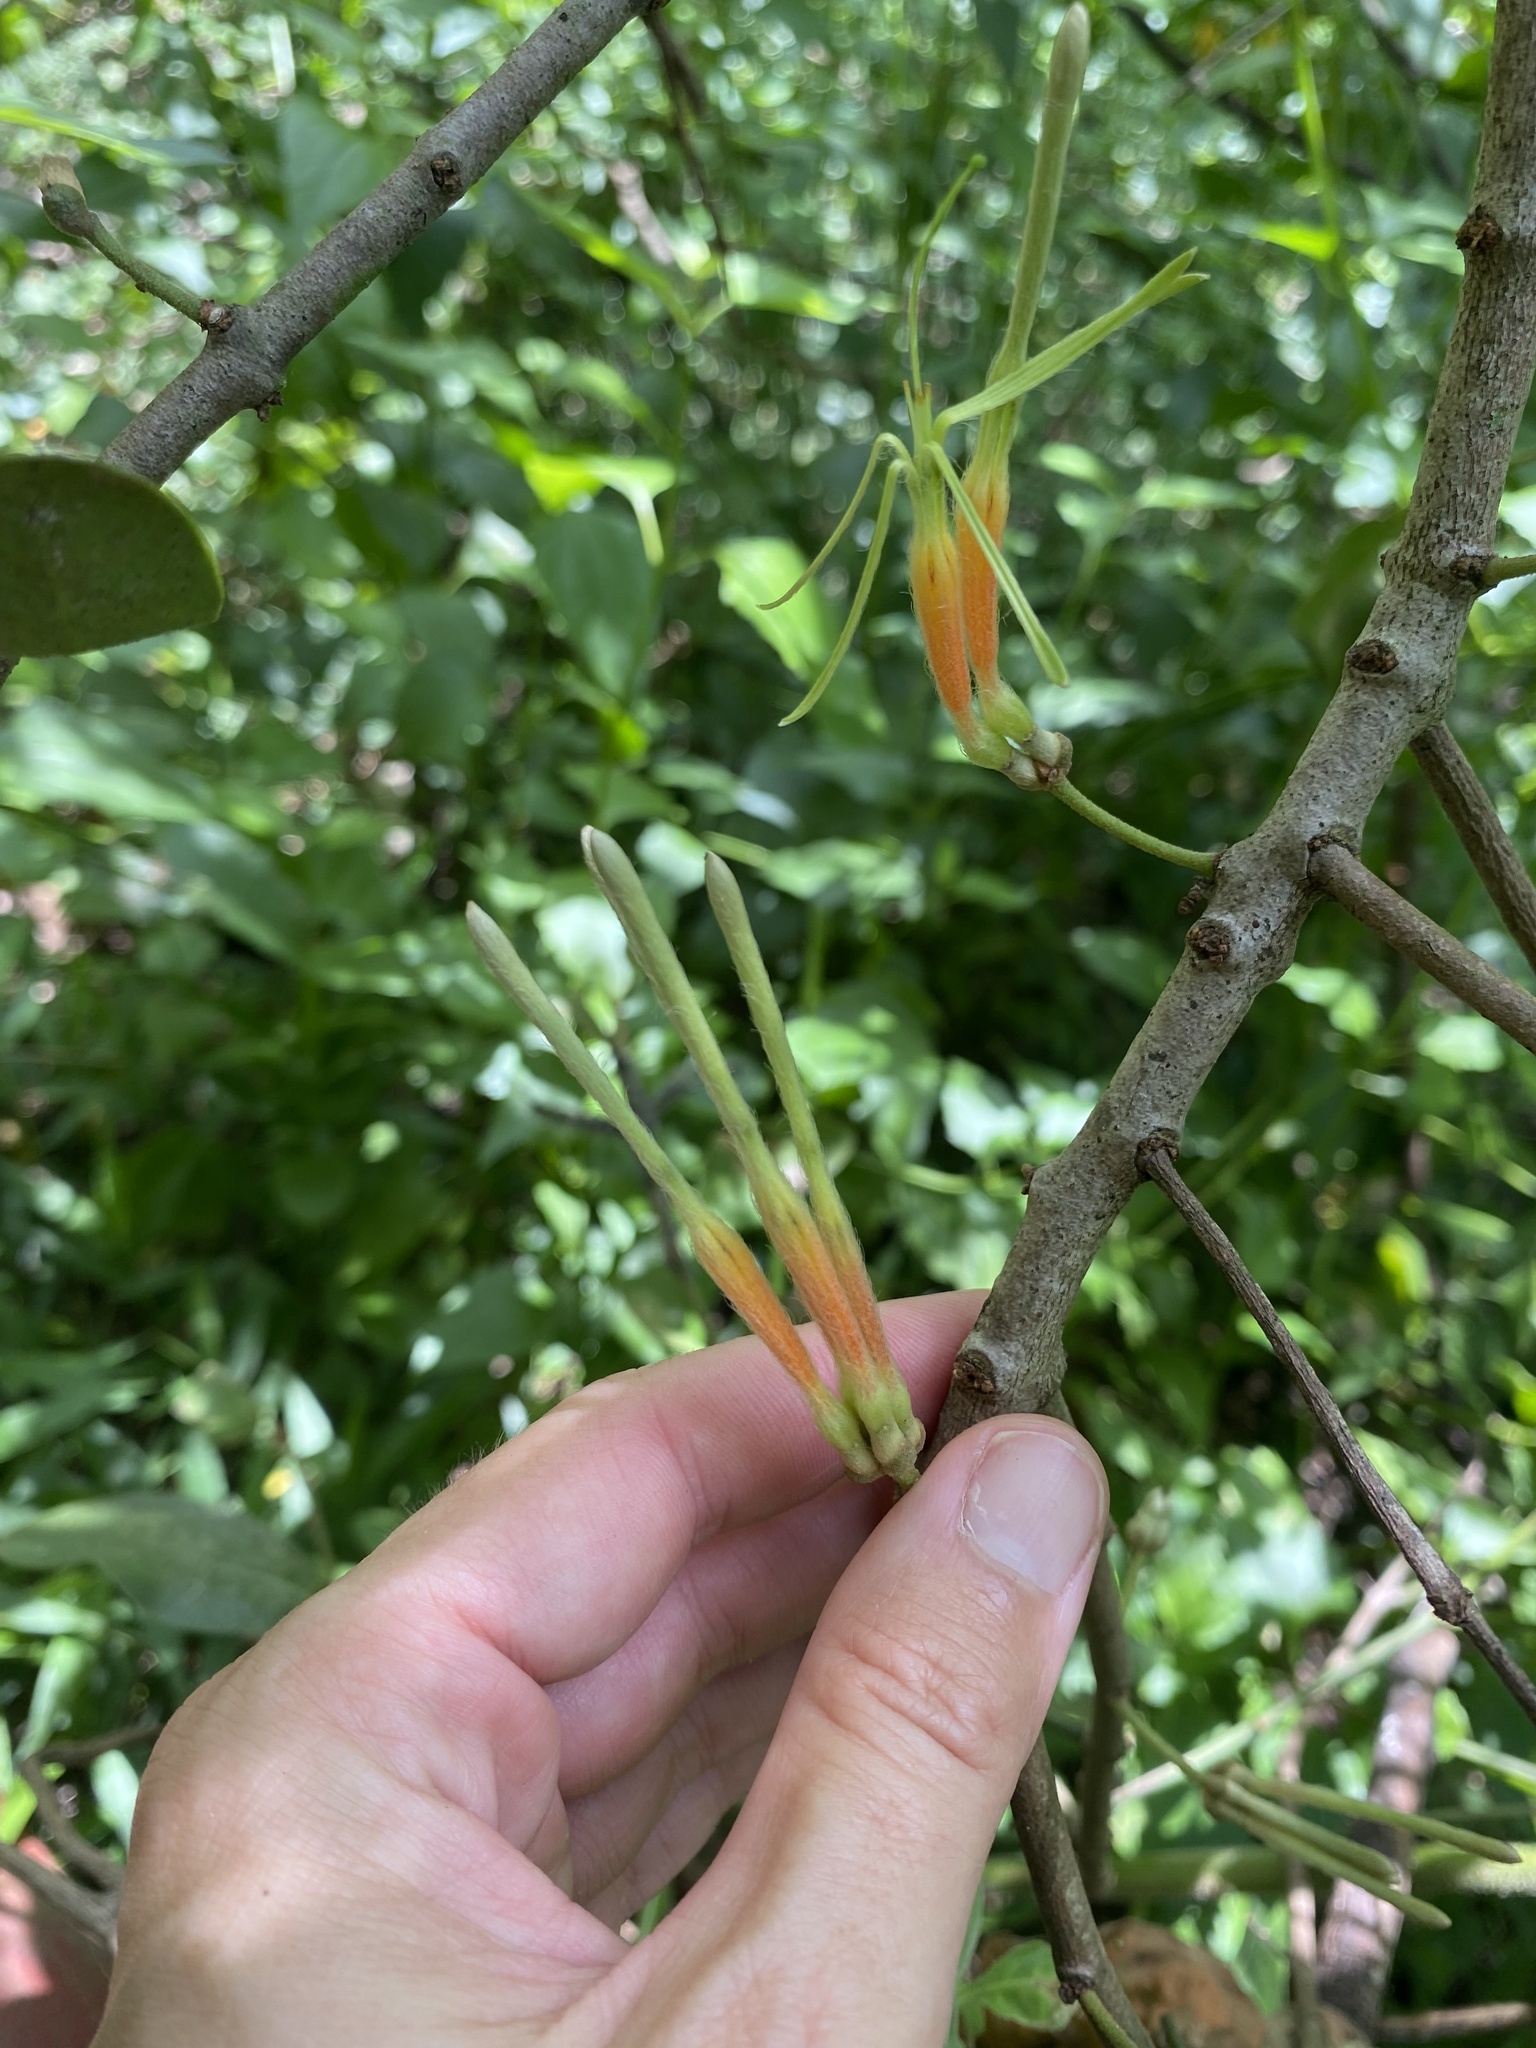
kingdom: Plantae
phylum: Tracheophyta
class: Magnoliopsida
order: Santalales
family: Loranthaceae
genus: Erianthemum
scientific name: Erianthemum dregei
